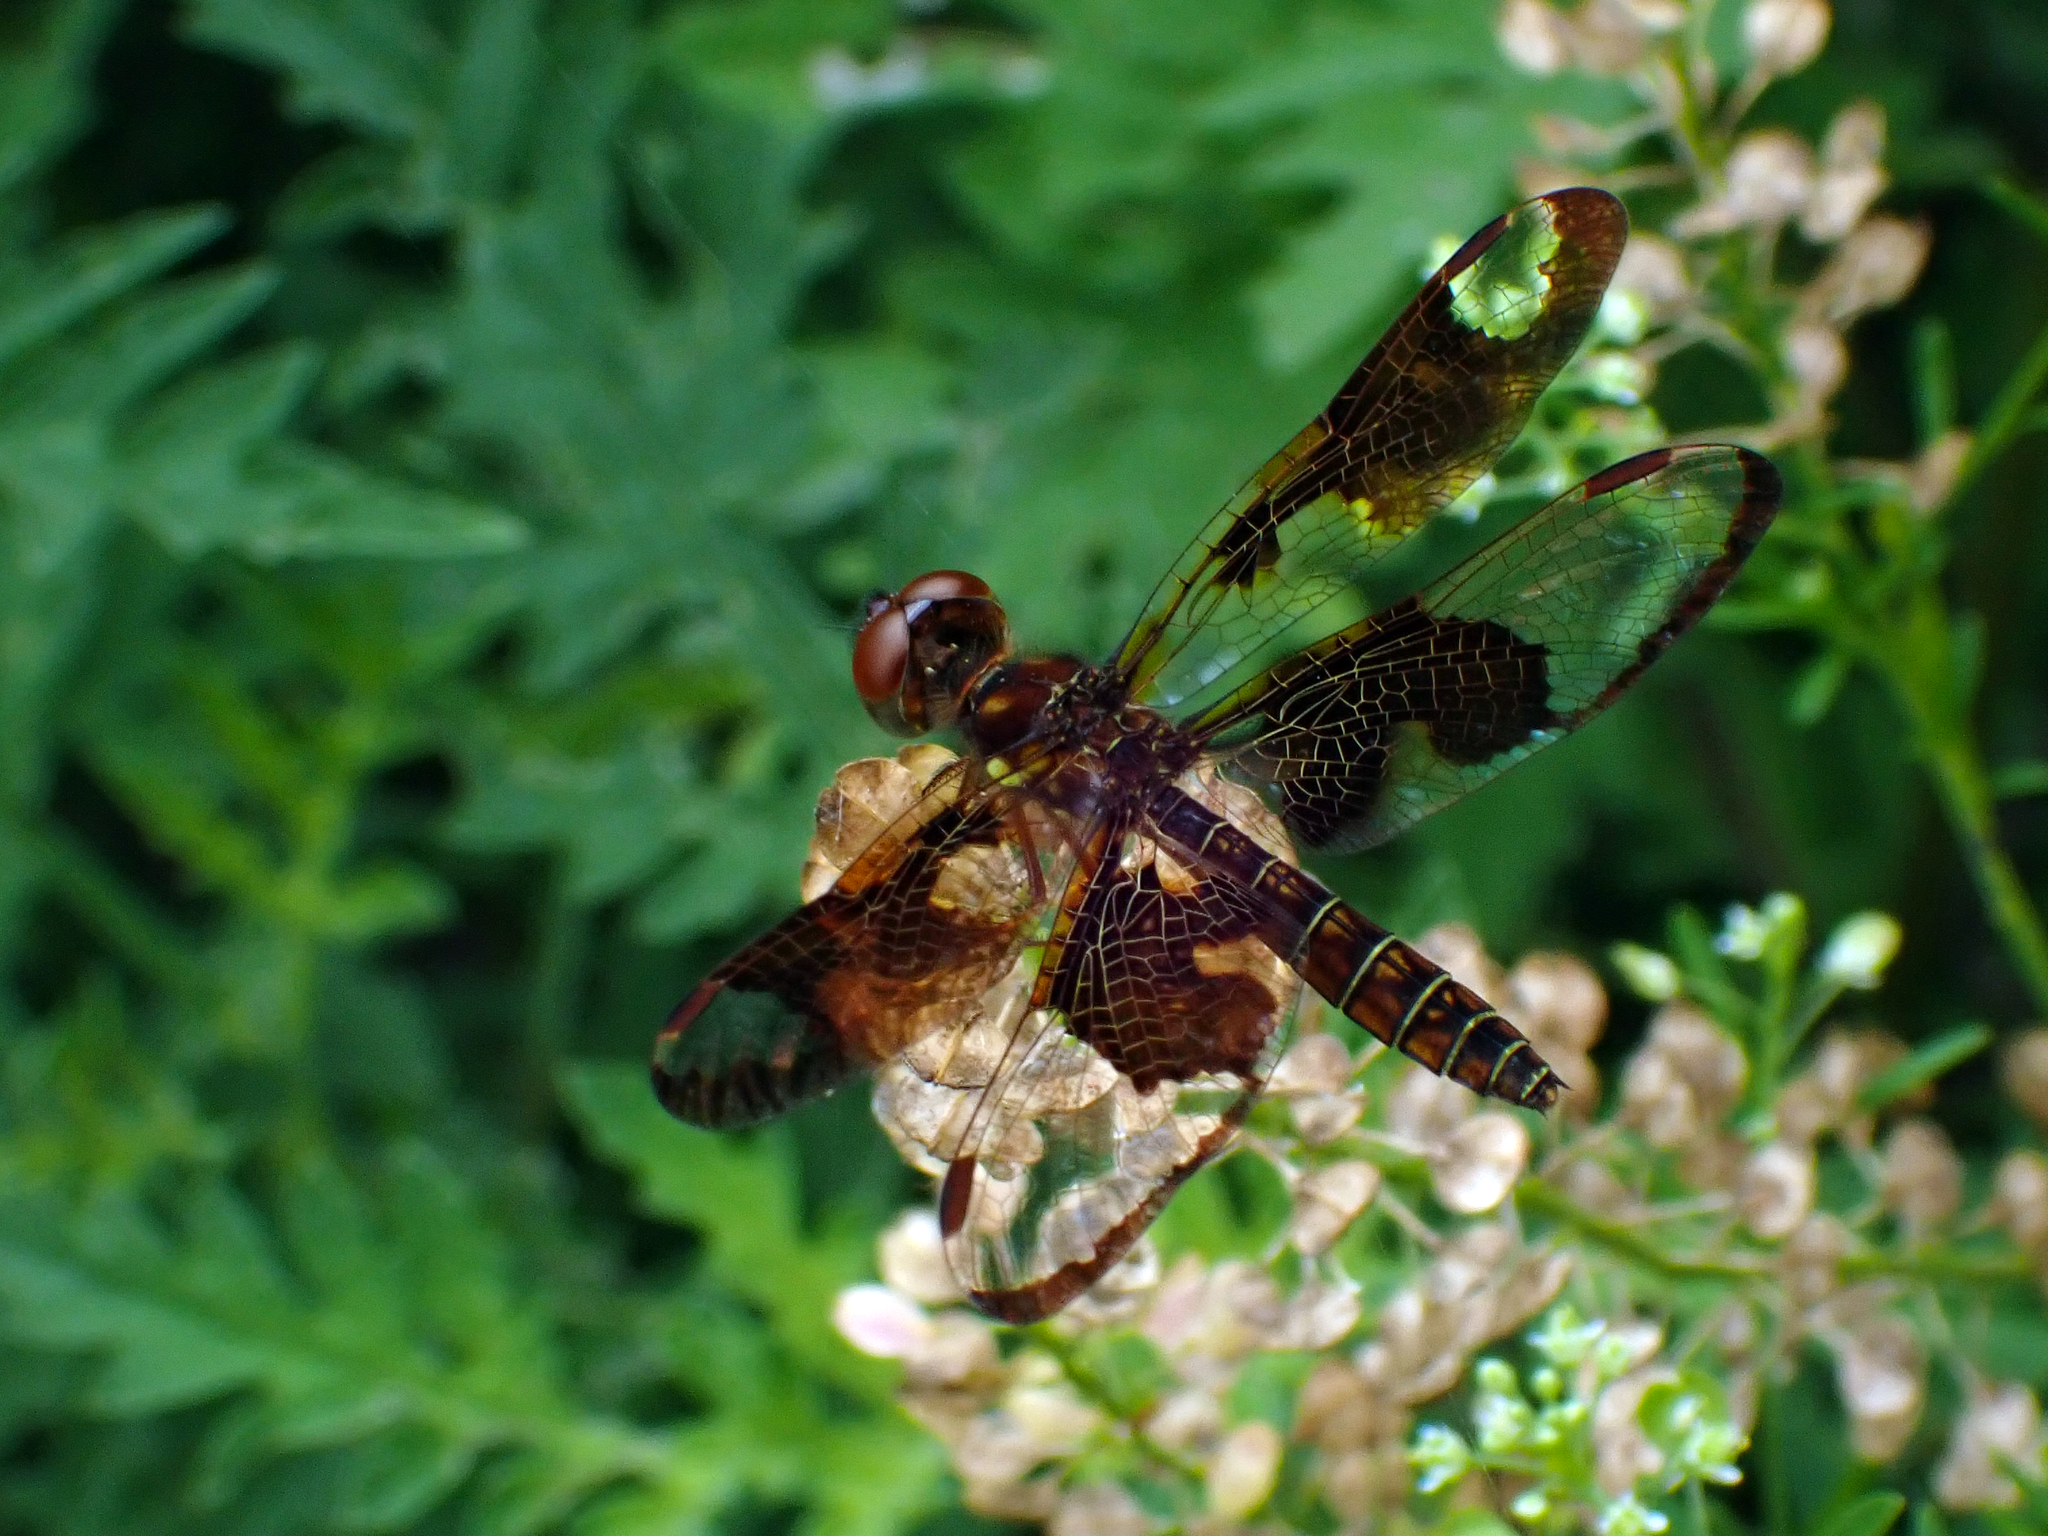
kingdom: Animalia
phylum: Arthropoda
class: Insecta
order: Odonata
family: Libellulidae
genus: Perithemis
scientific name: Perithemis tenera
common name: Eastern amberwing
